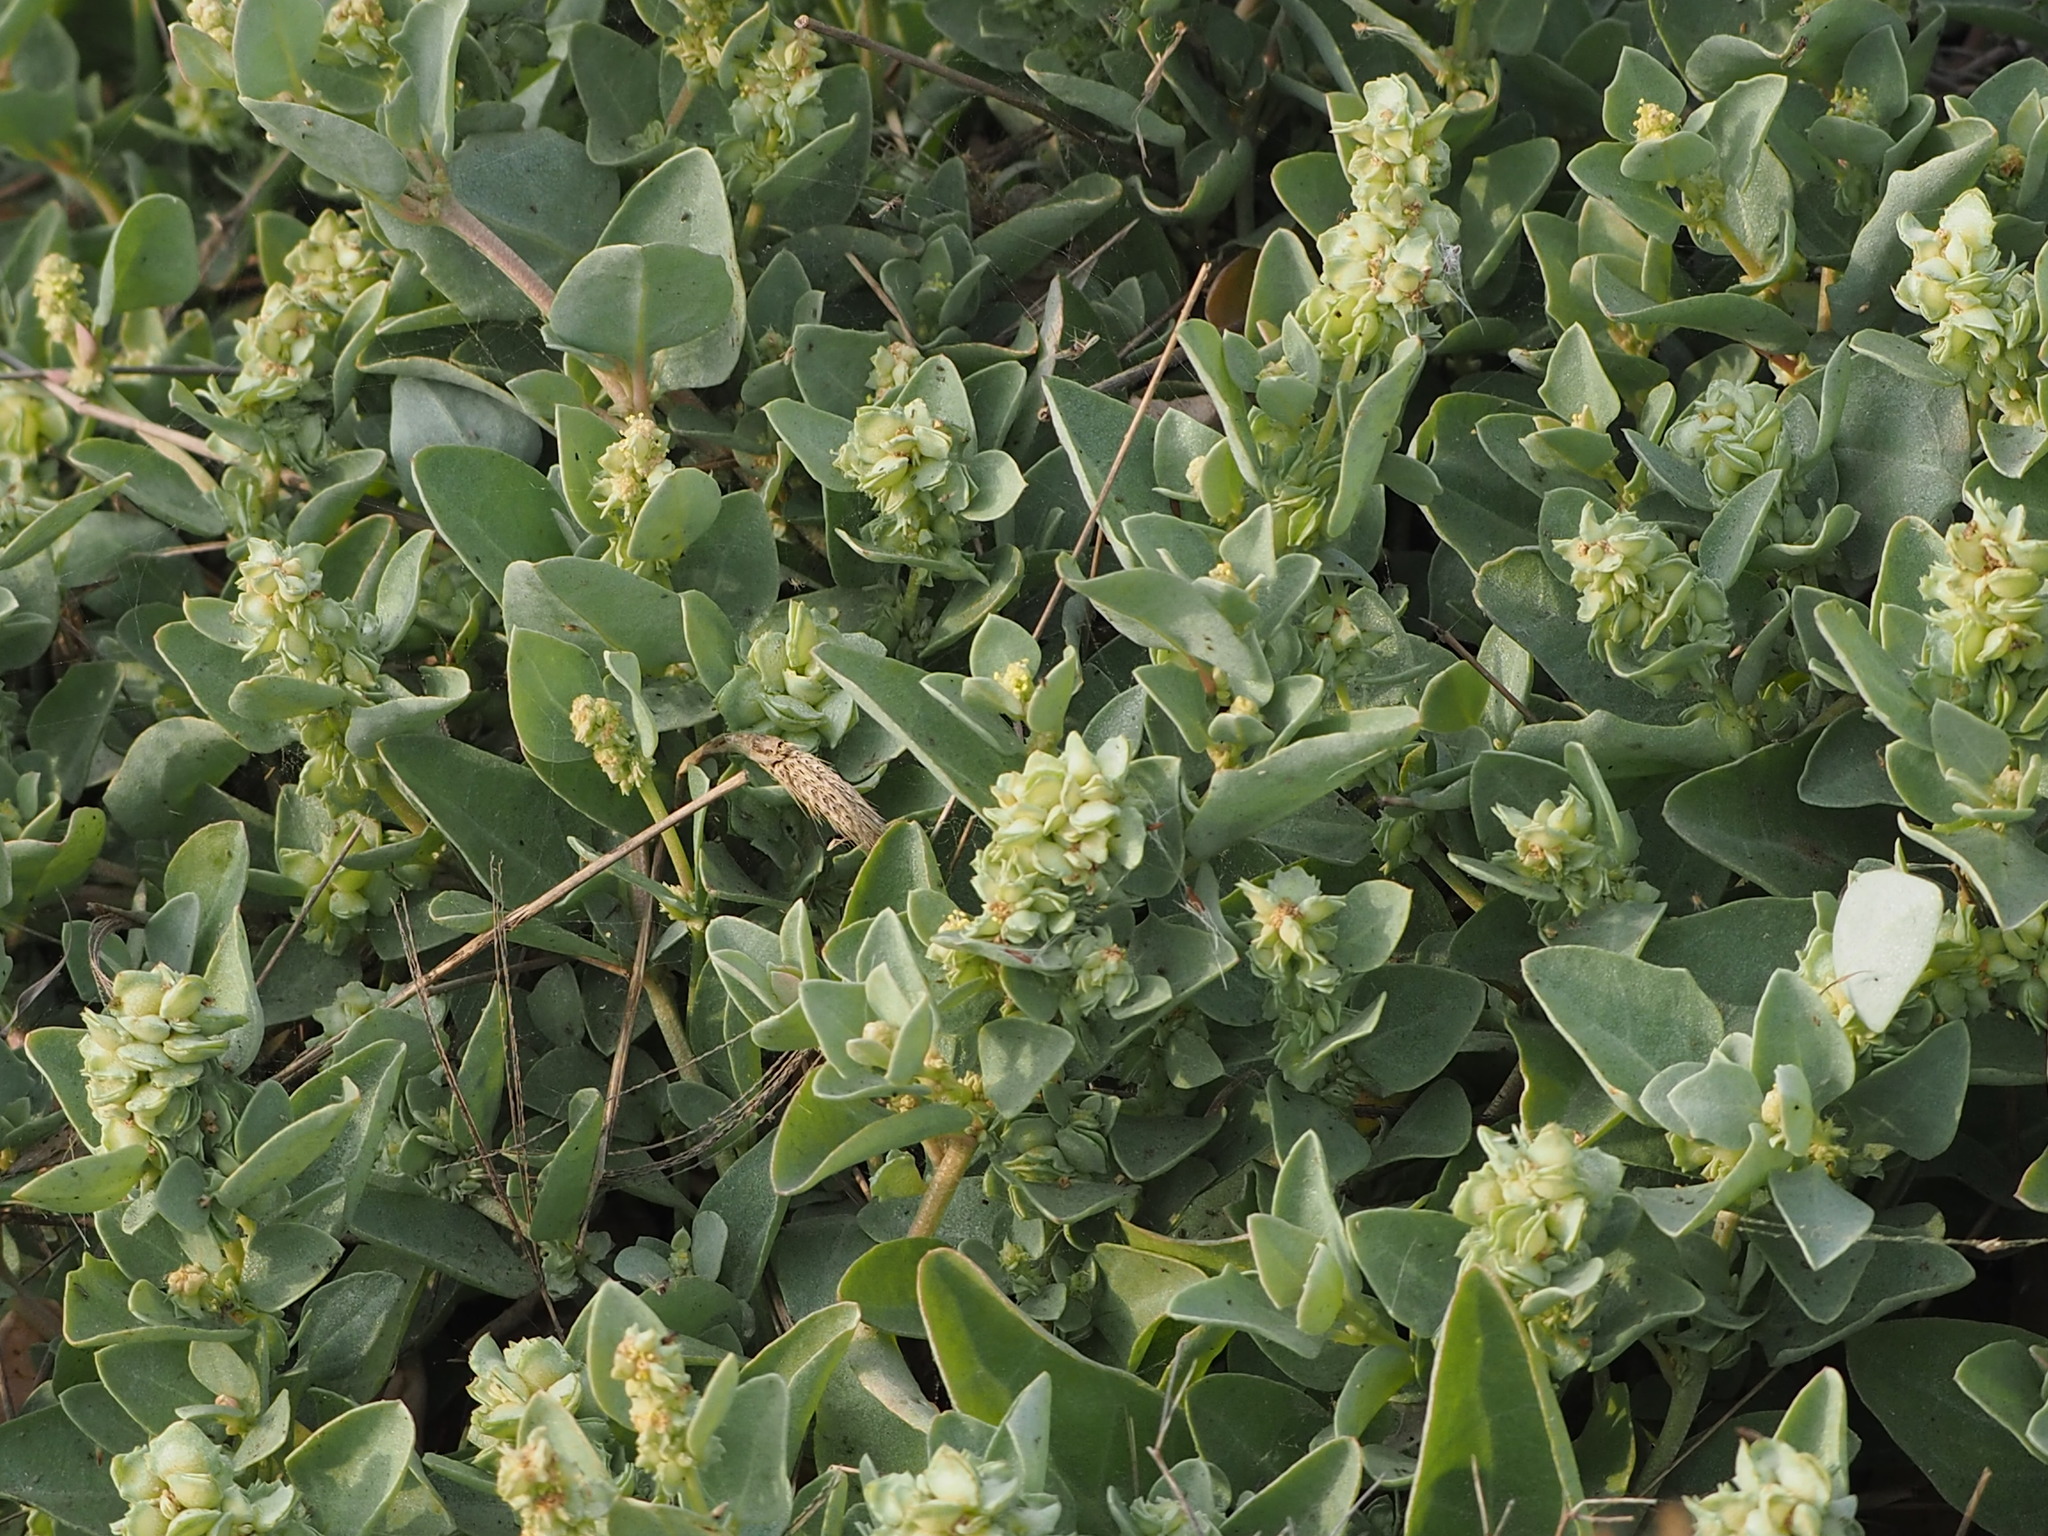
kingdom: Plantae
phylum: Tracheophyta
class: Magnoliopsida
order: Caryophyllales
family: Amaranthaceae
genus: Atriplex
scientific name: Atriplex maximowicziana
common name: Maximowicz's saltbush
